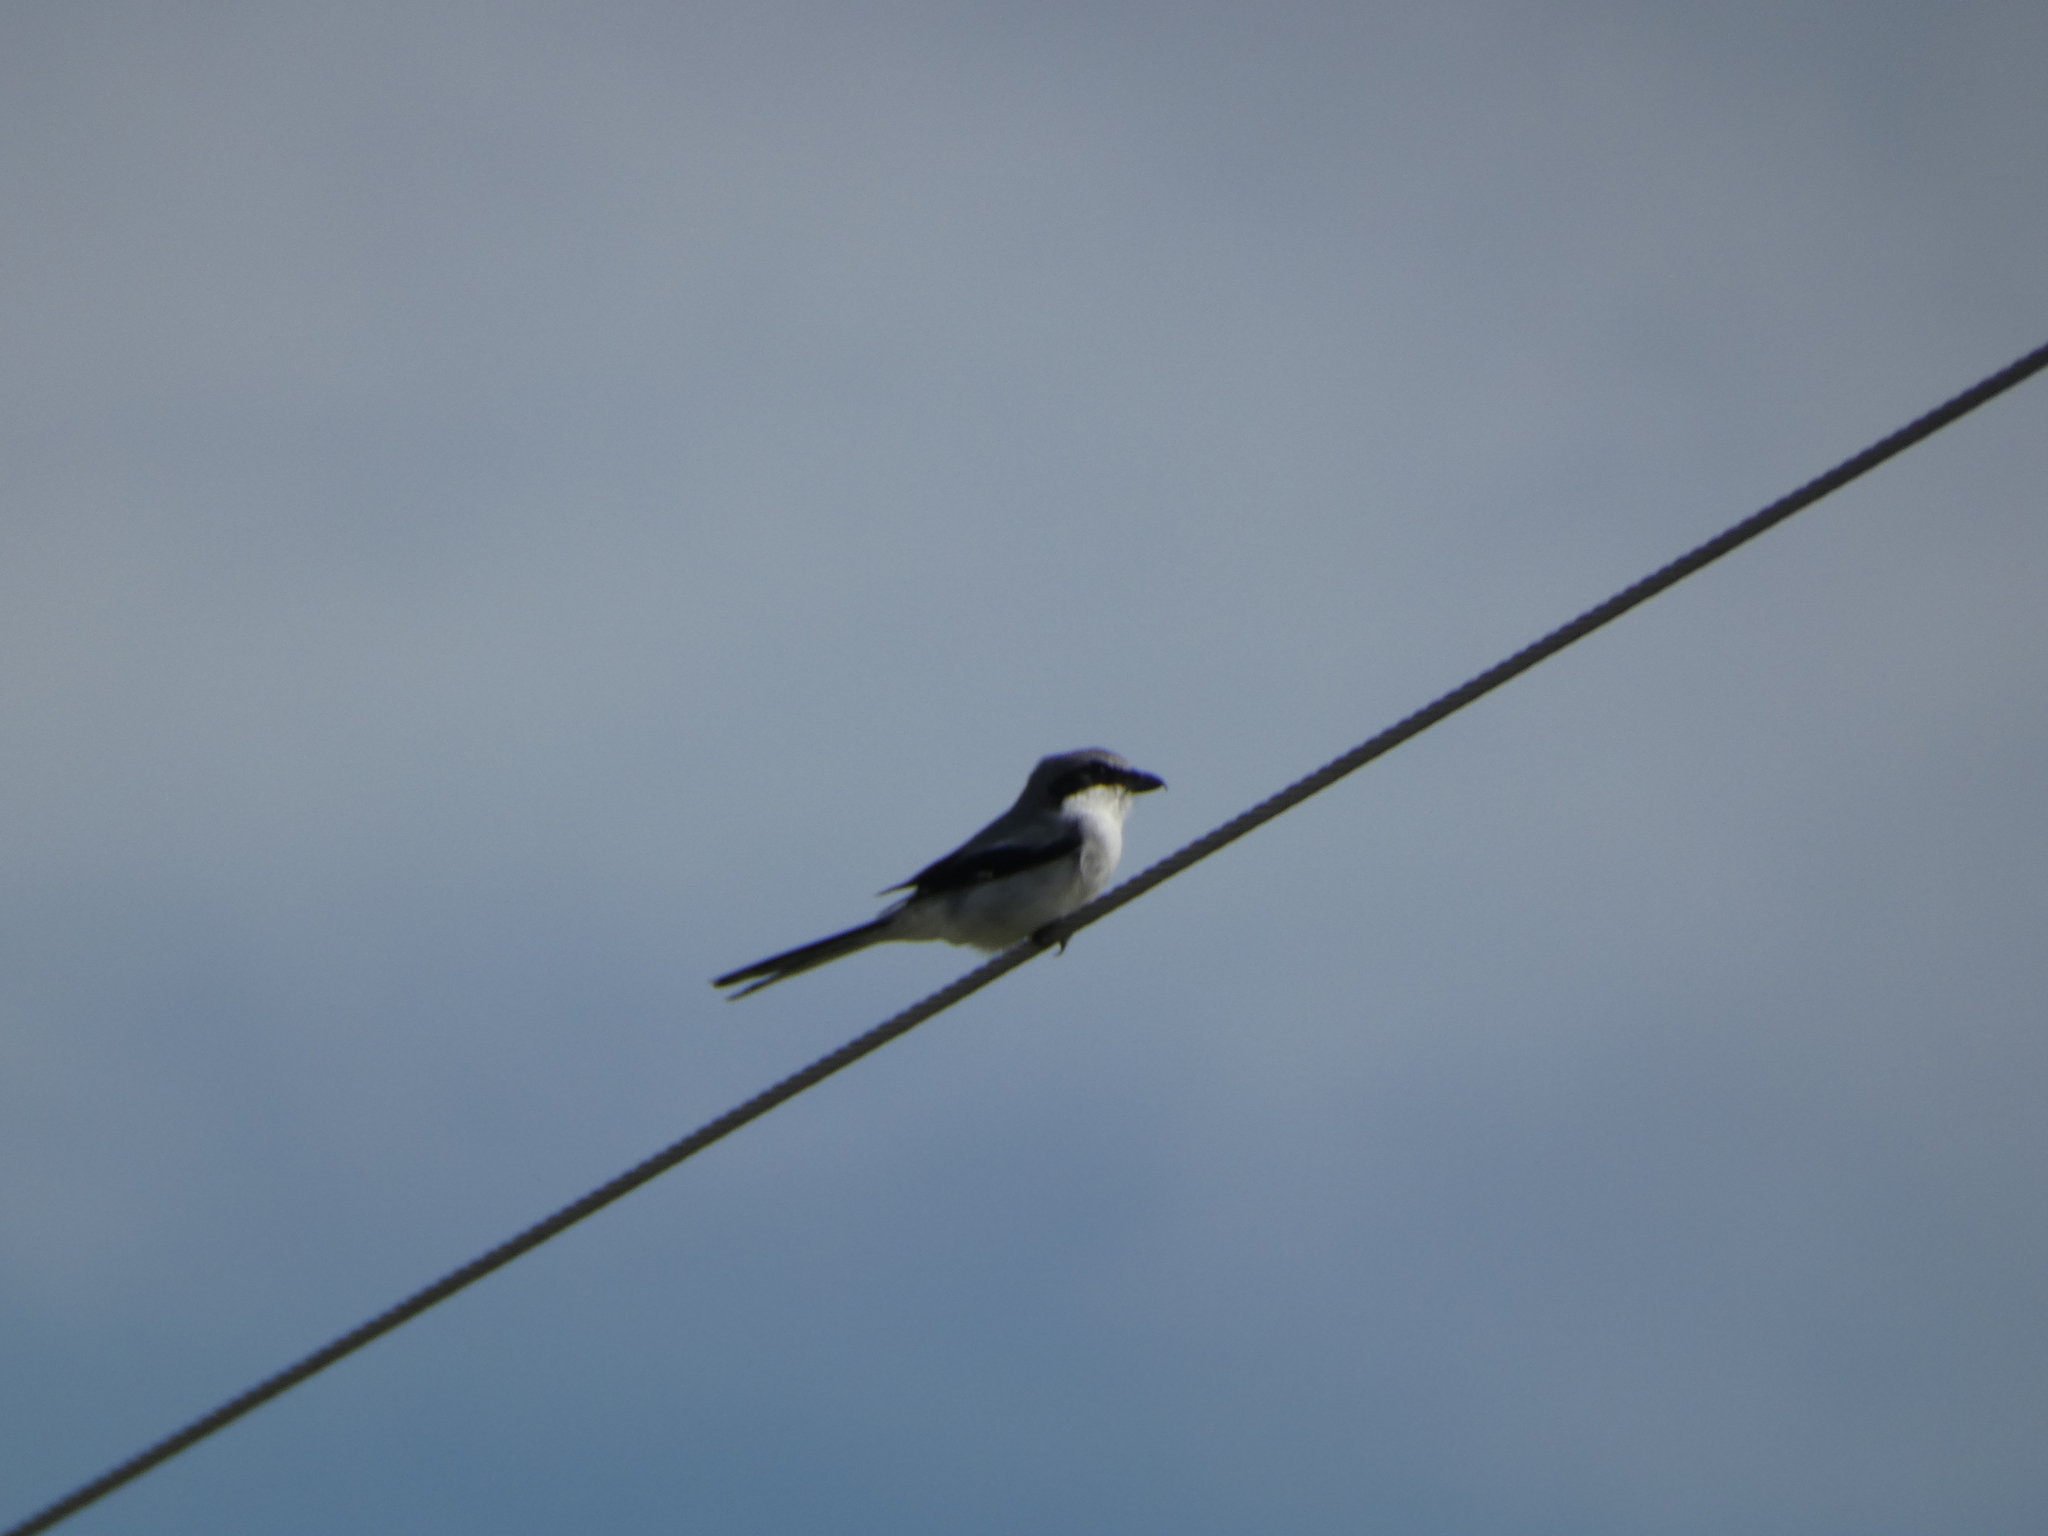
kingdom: Animalia
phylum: Chordata
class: Aves
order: Passeriformes
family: Laniidae
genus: Lanius
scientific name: Lanius ludovicianus
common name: Loggerhead shrike
